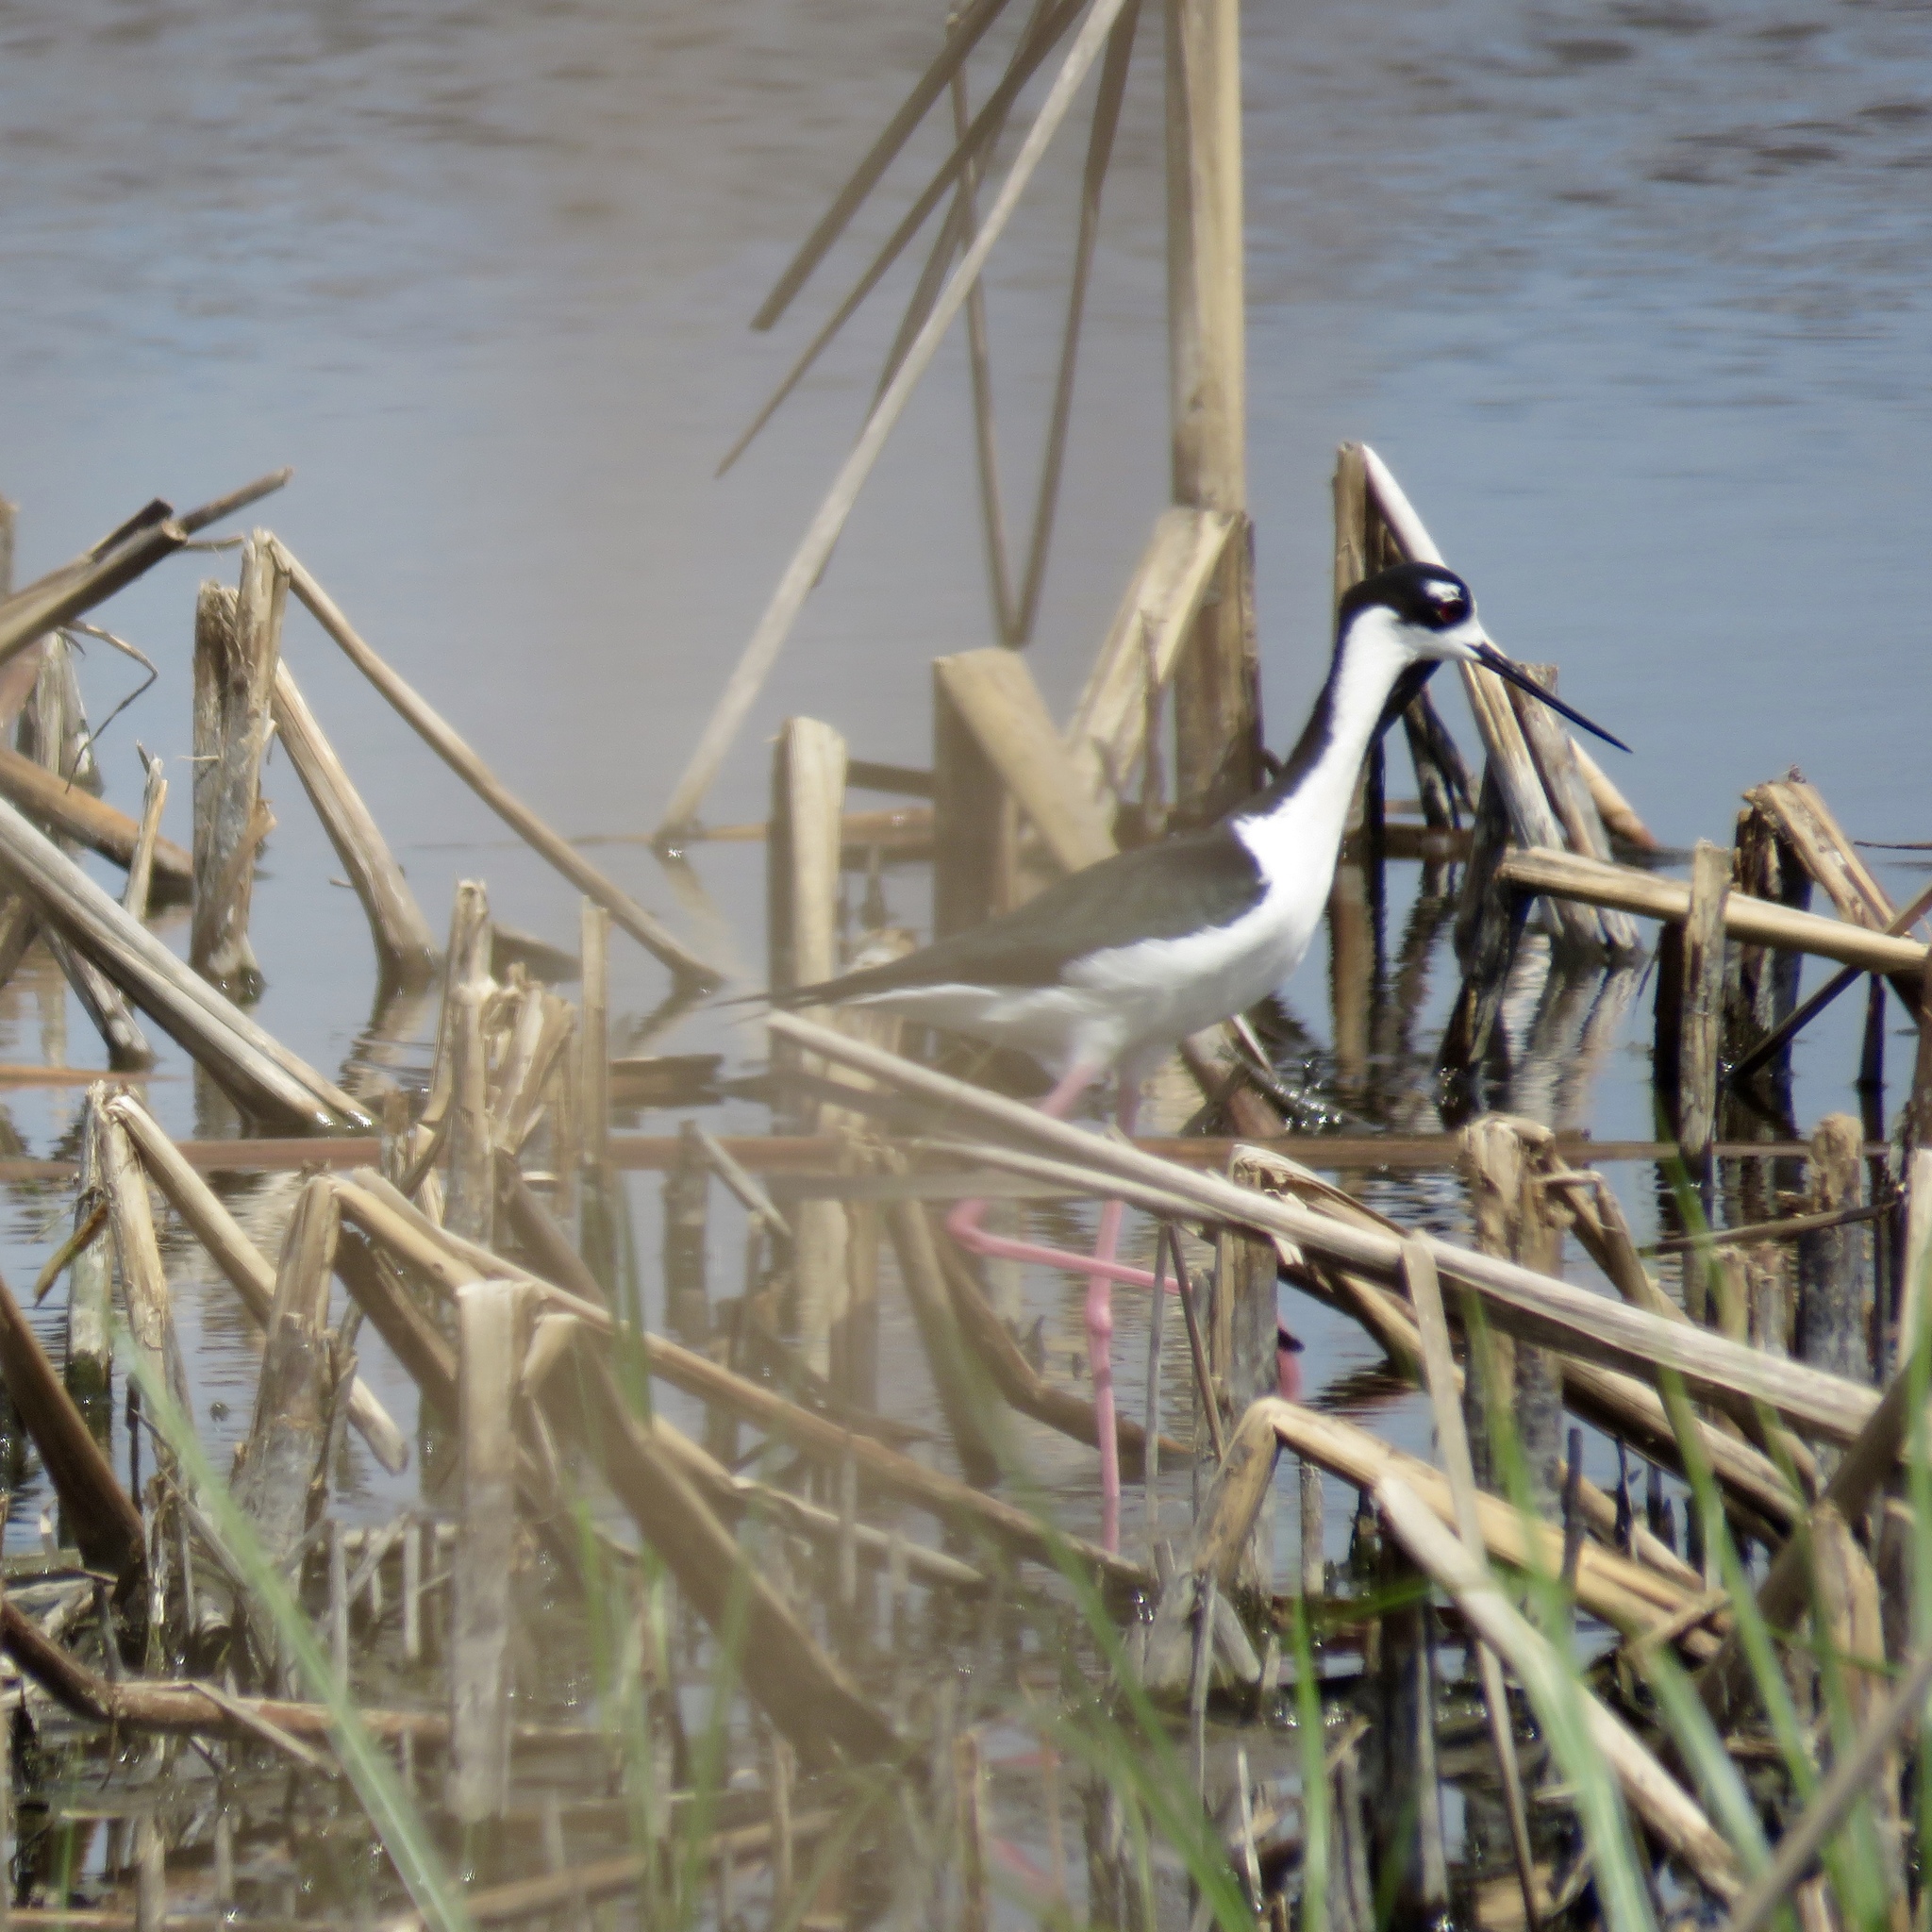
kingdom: Animalia
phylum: Chordata
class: Aves
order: Charadriiformes
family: Recurvirostridae
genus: Himantopus
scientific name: Himantopus mexicanus
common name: Black-necked stilt
